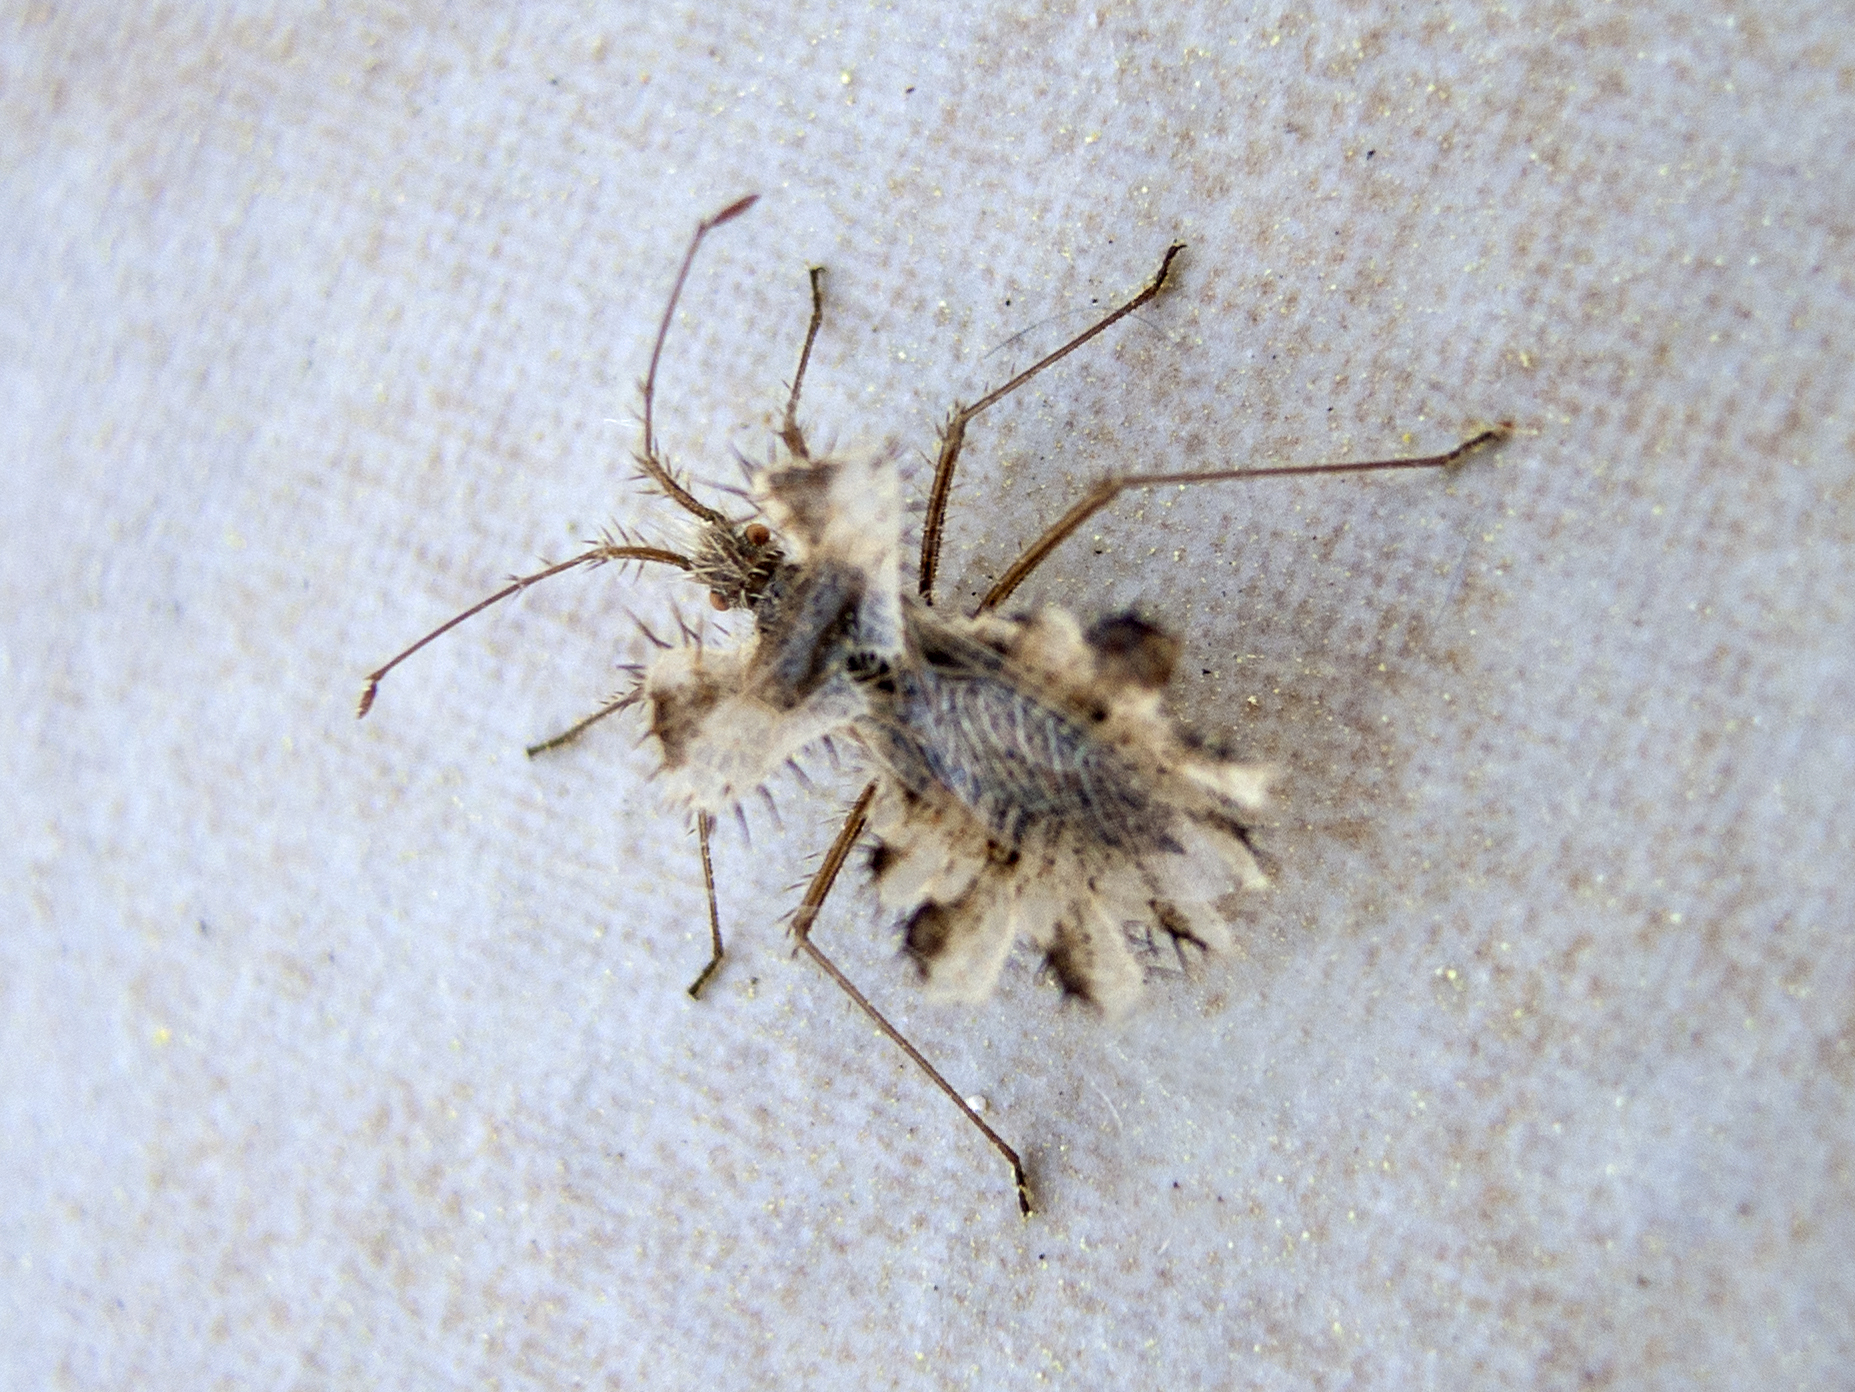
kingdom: Animalia
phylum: Arthropoda
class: Insecta
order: Hemiptera
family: Coreidae
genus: Phyllomorpha
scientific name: Phyllomorpha laciniata
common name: Golden egg bug
